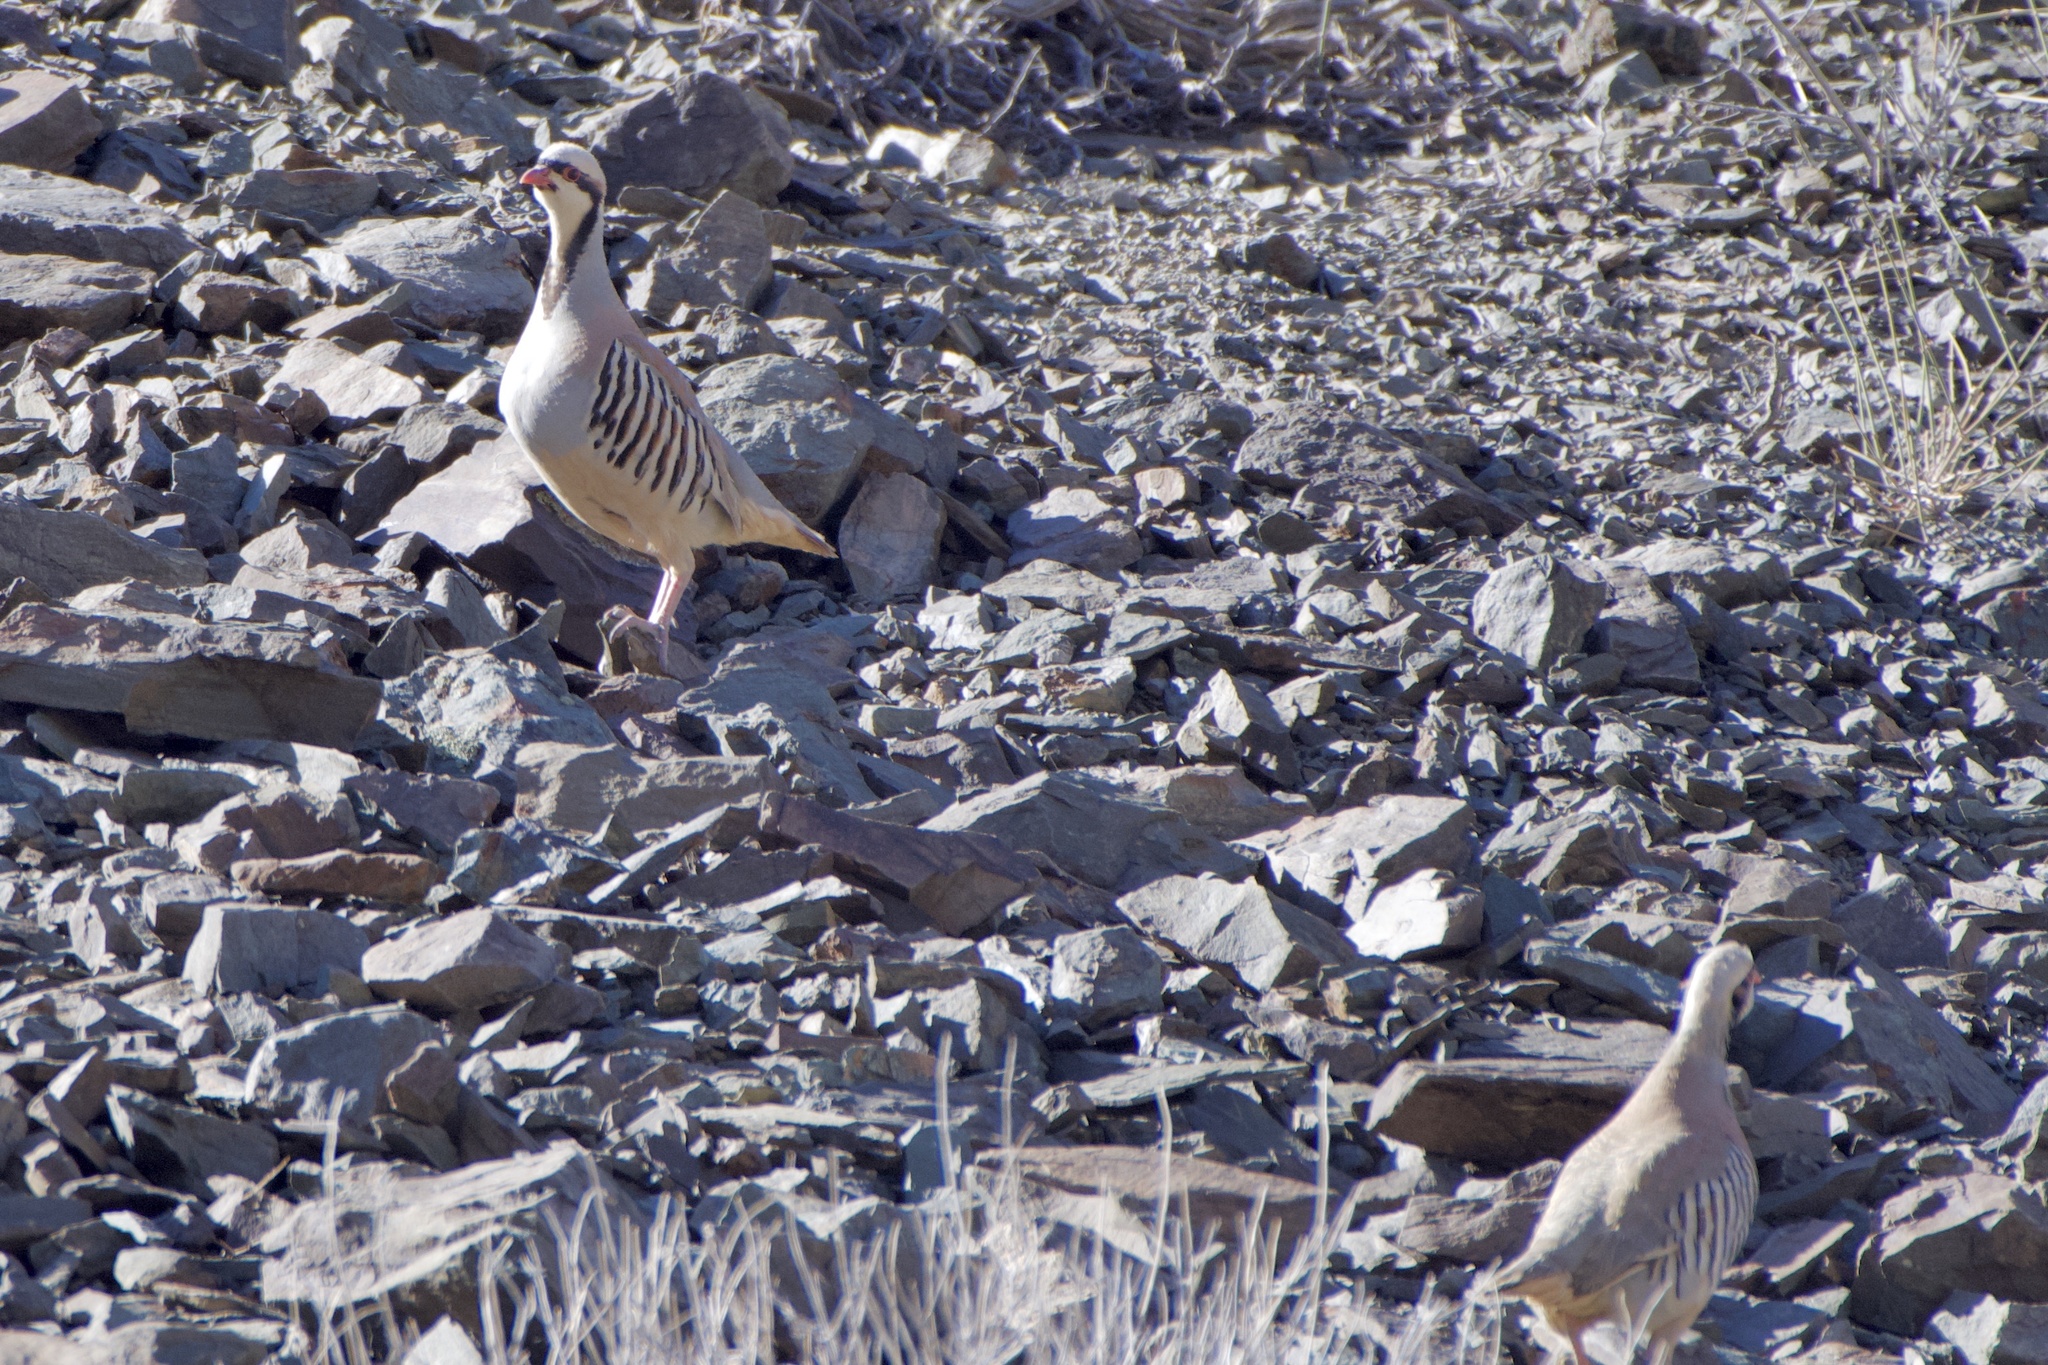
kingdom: Animalia
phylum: Chordata
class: Aves
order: Galliformes
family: Phasianidae
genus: Alectoris
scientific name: Alectoris chukar
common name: Chukar
